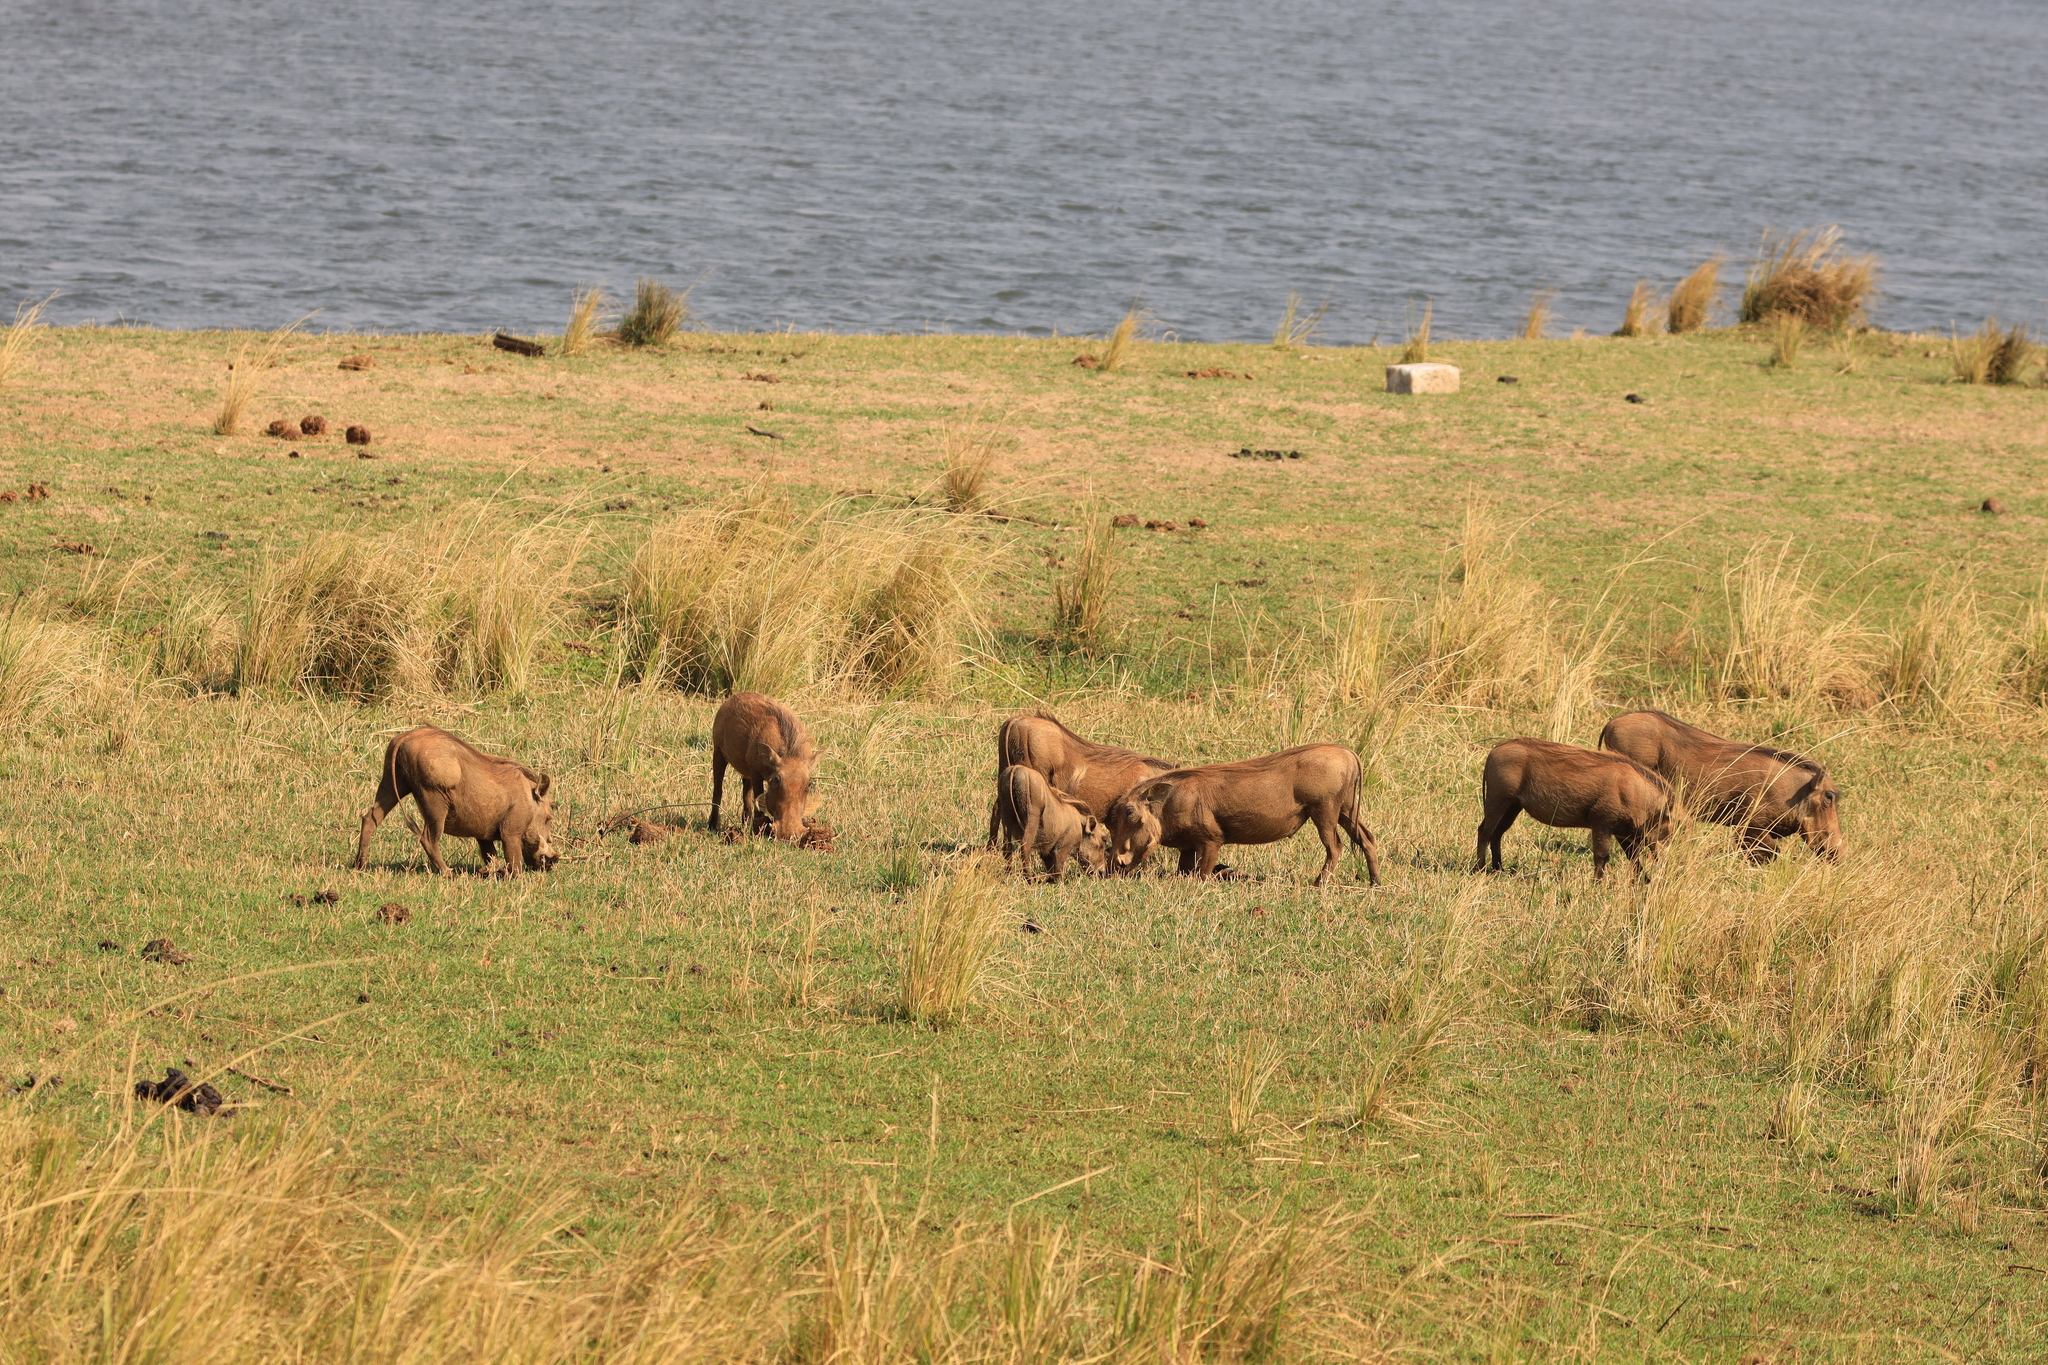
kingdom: Animalia
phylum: Chordata
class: Mammalia
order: Artiodactyla
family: Suidae
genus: Phacochoerus
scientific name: Phacochoerus africanus
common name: Common warthog
